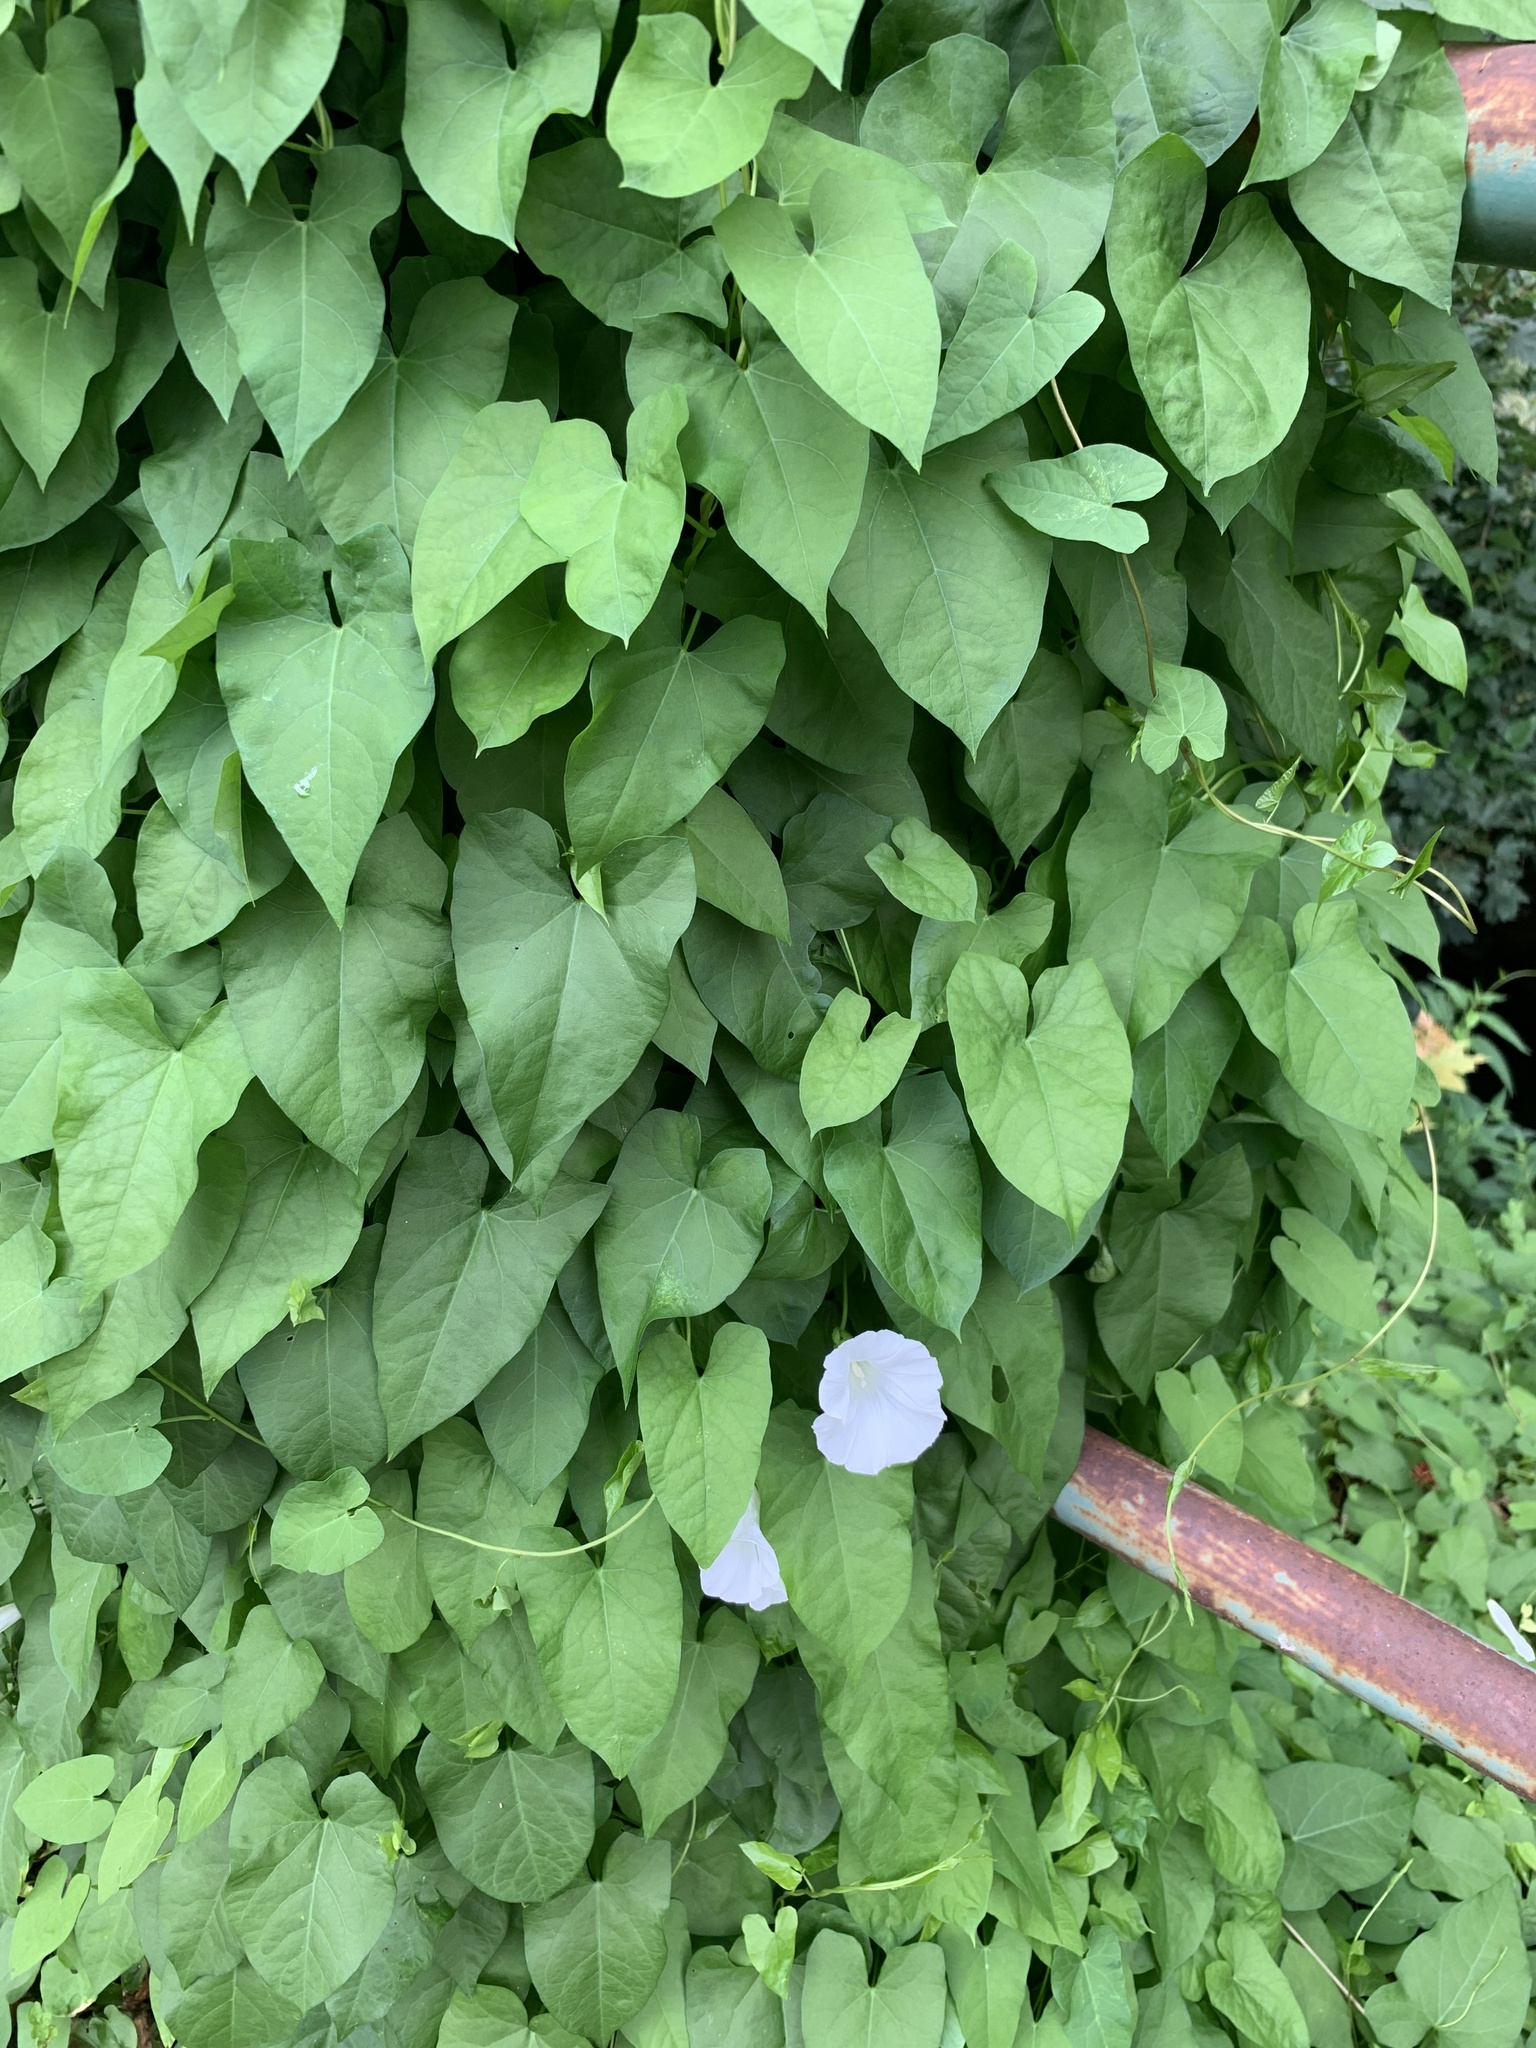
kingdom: Plantae
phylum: Tracheophyta
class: Magnoliopsida
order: Solanales
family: Convolvulaceae
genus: Calystegia
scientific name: Calystegia sepium
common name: Hedge bindweed
